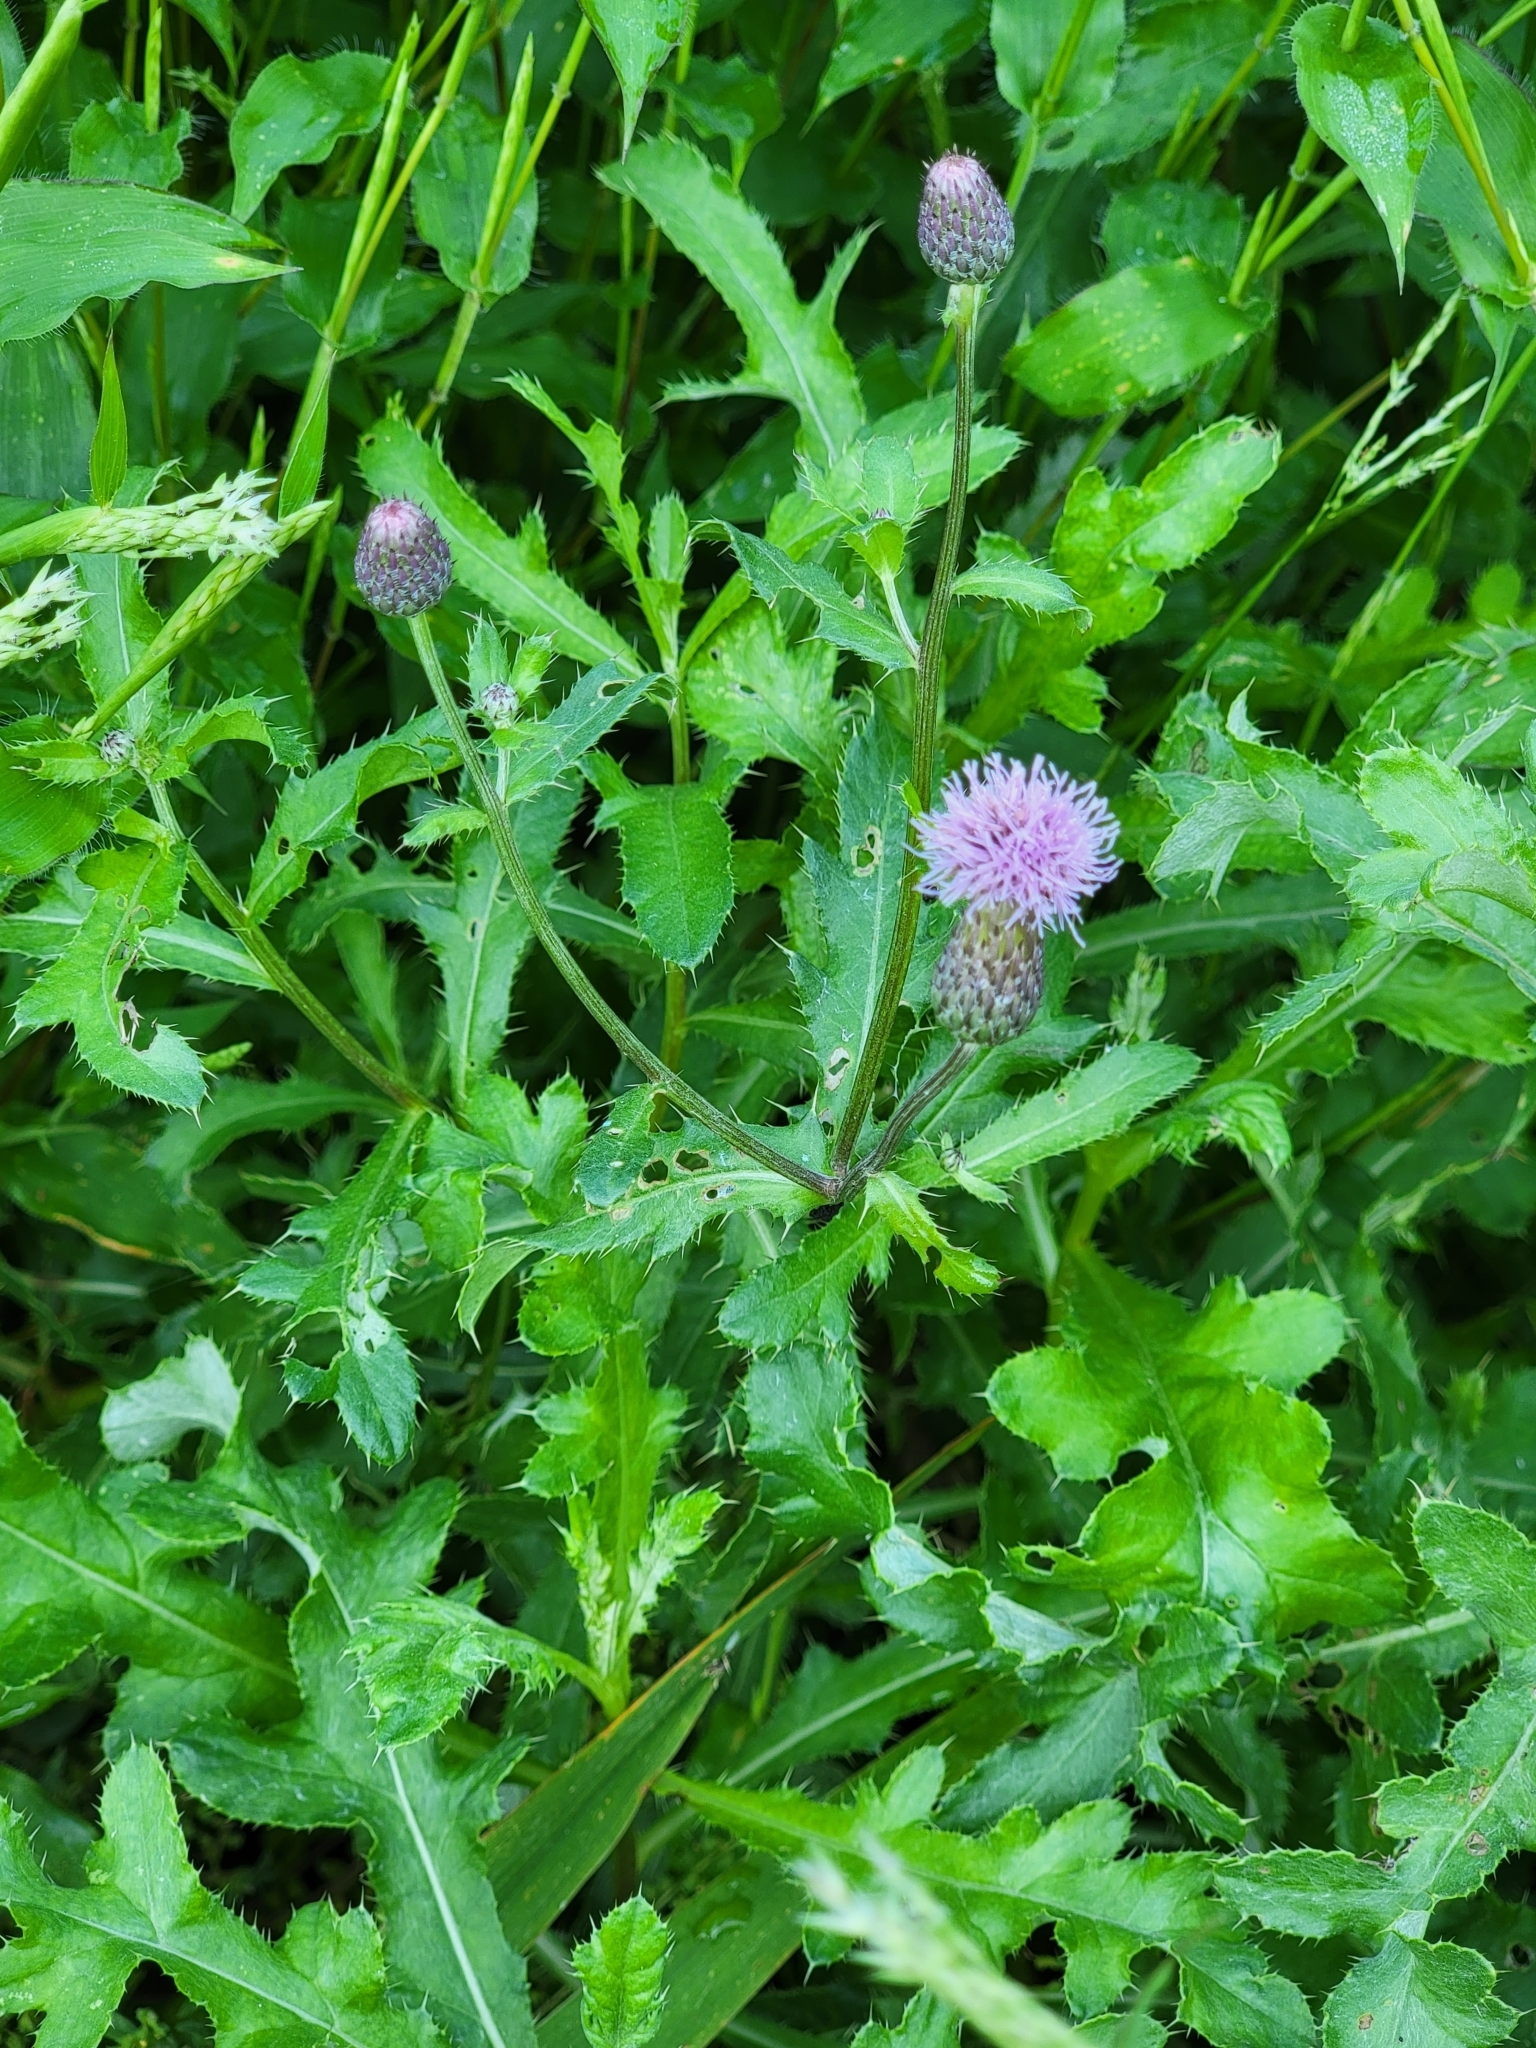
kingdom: Plantae
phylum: Tracheophyta
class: Magnoliopsida
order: Asterales
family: Asteraceae
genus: Cirsium
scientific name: Cirsium arvense
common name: Creeping thistle
